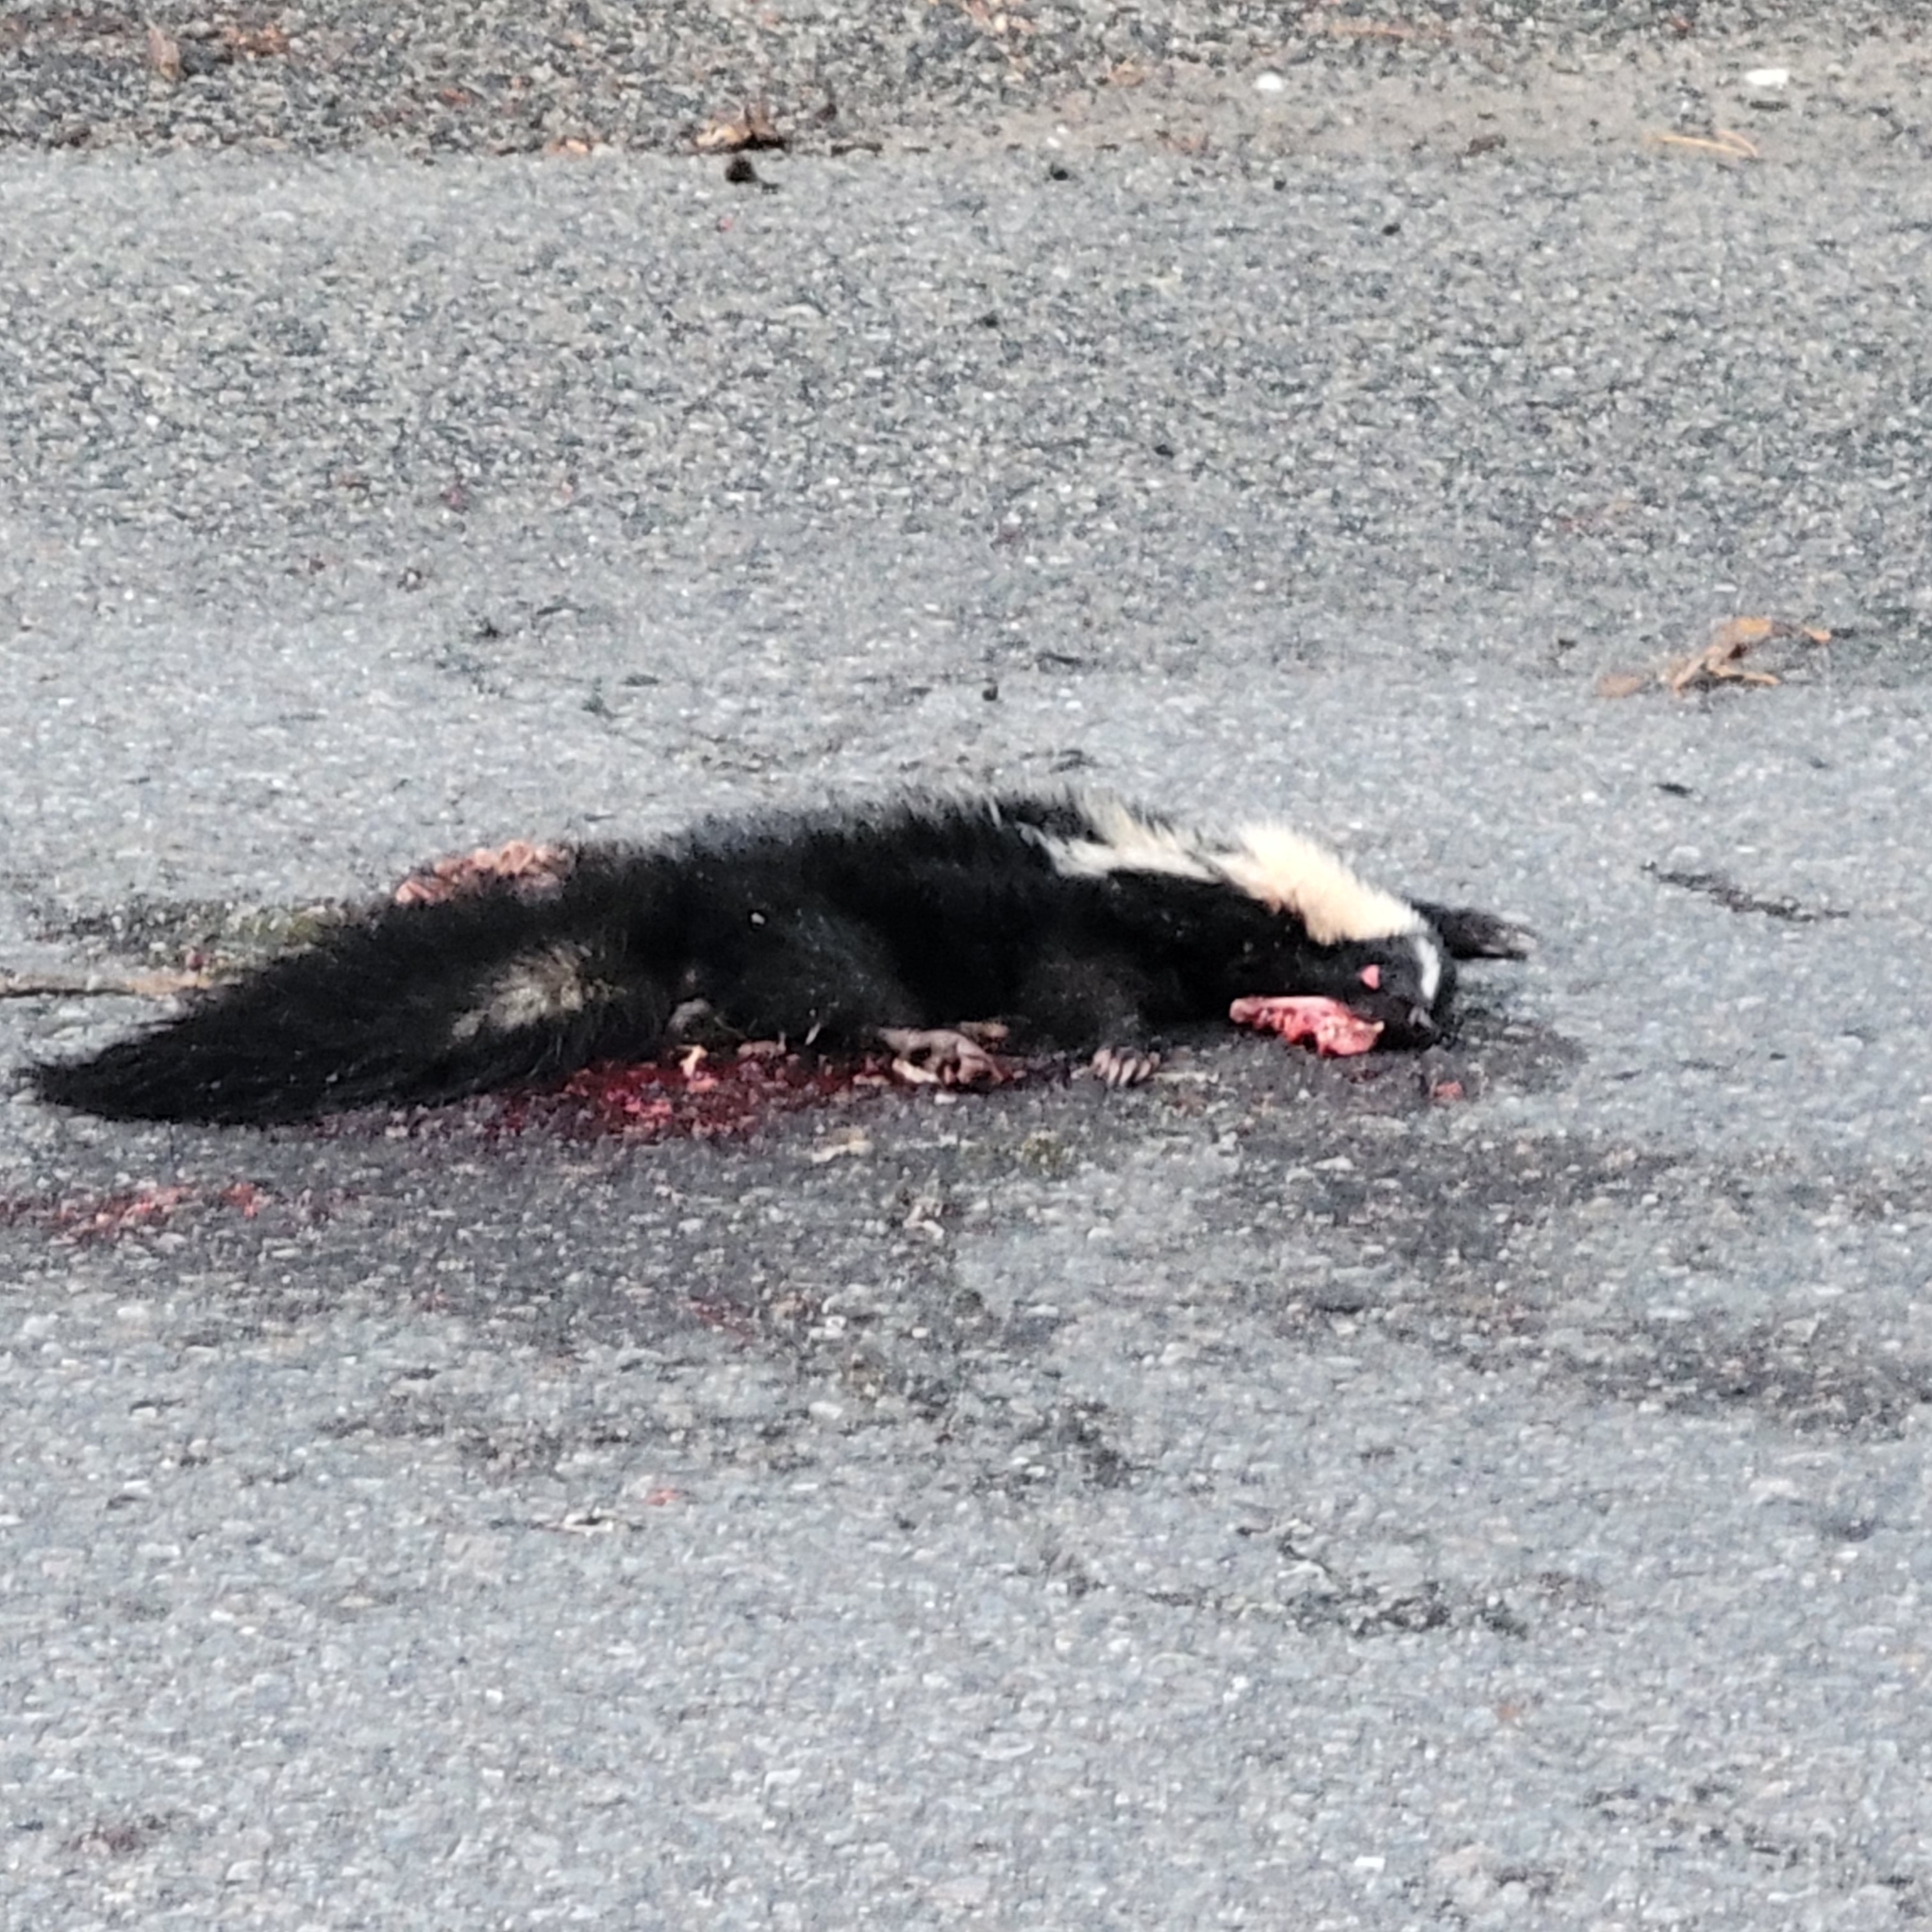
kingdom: Animalia
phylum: Chordata
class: Mammalia
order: Carnivora
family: Mephitidae
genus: Mephitis
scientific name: Mephitis mephitis
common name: Striped skunk
